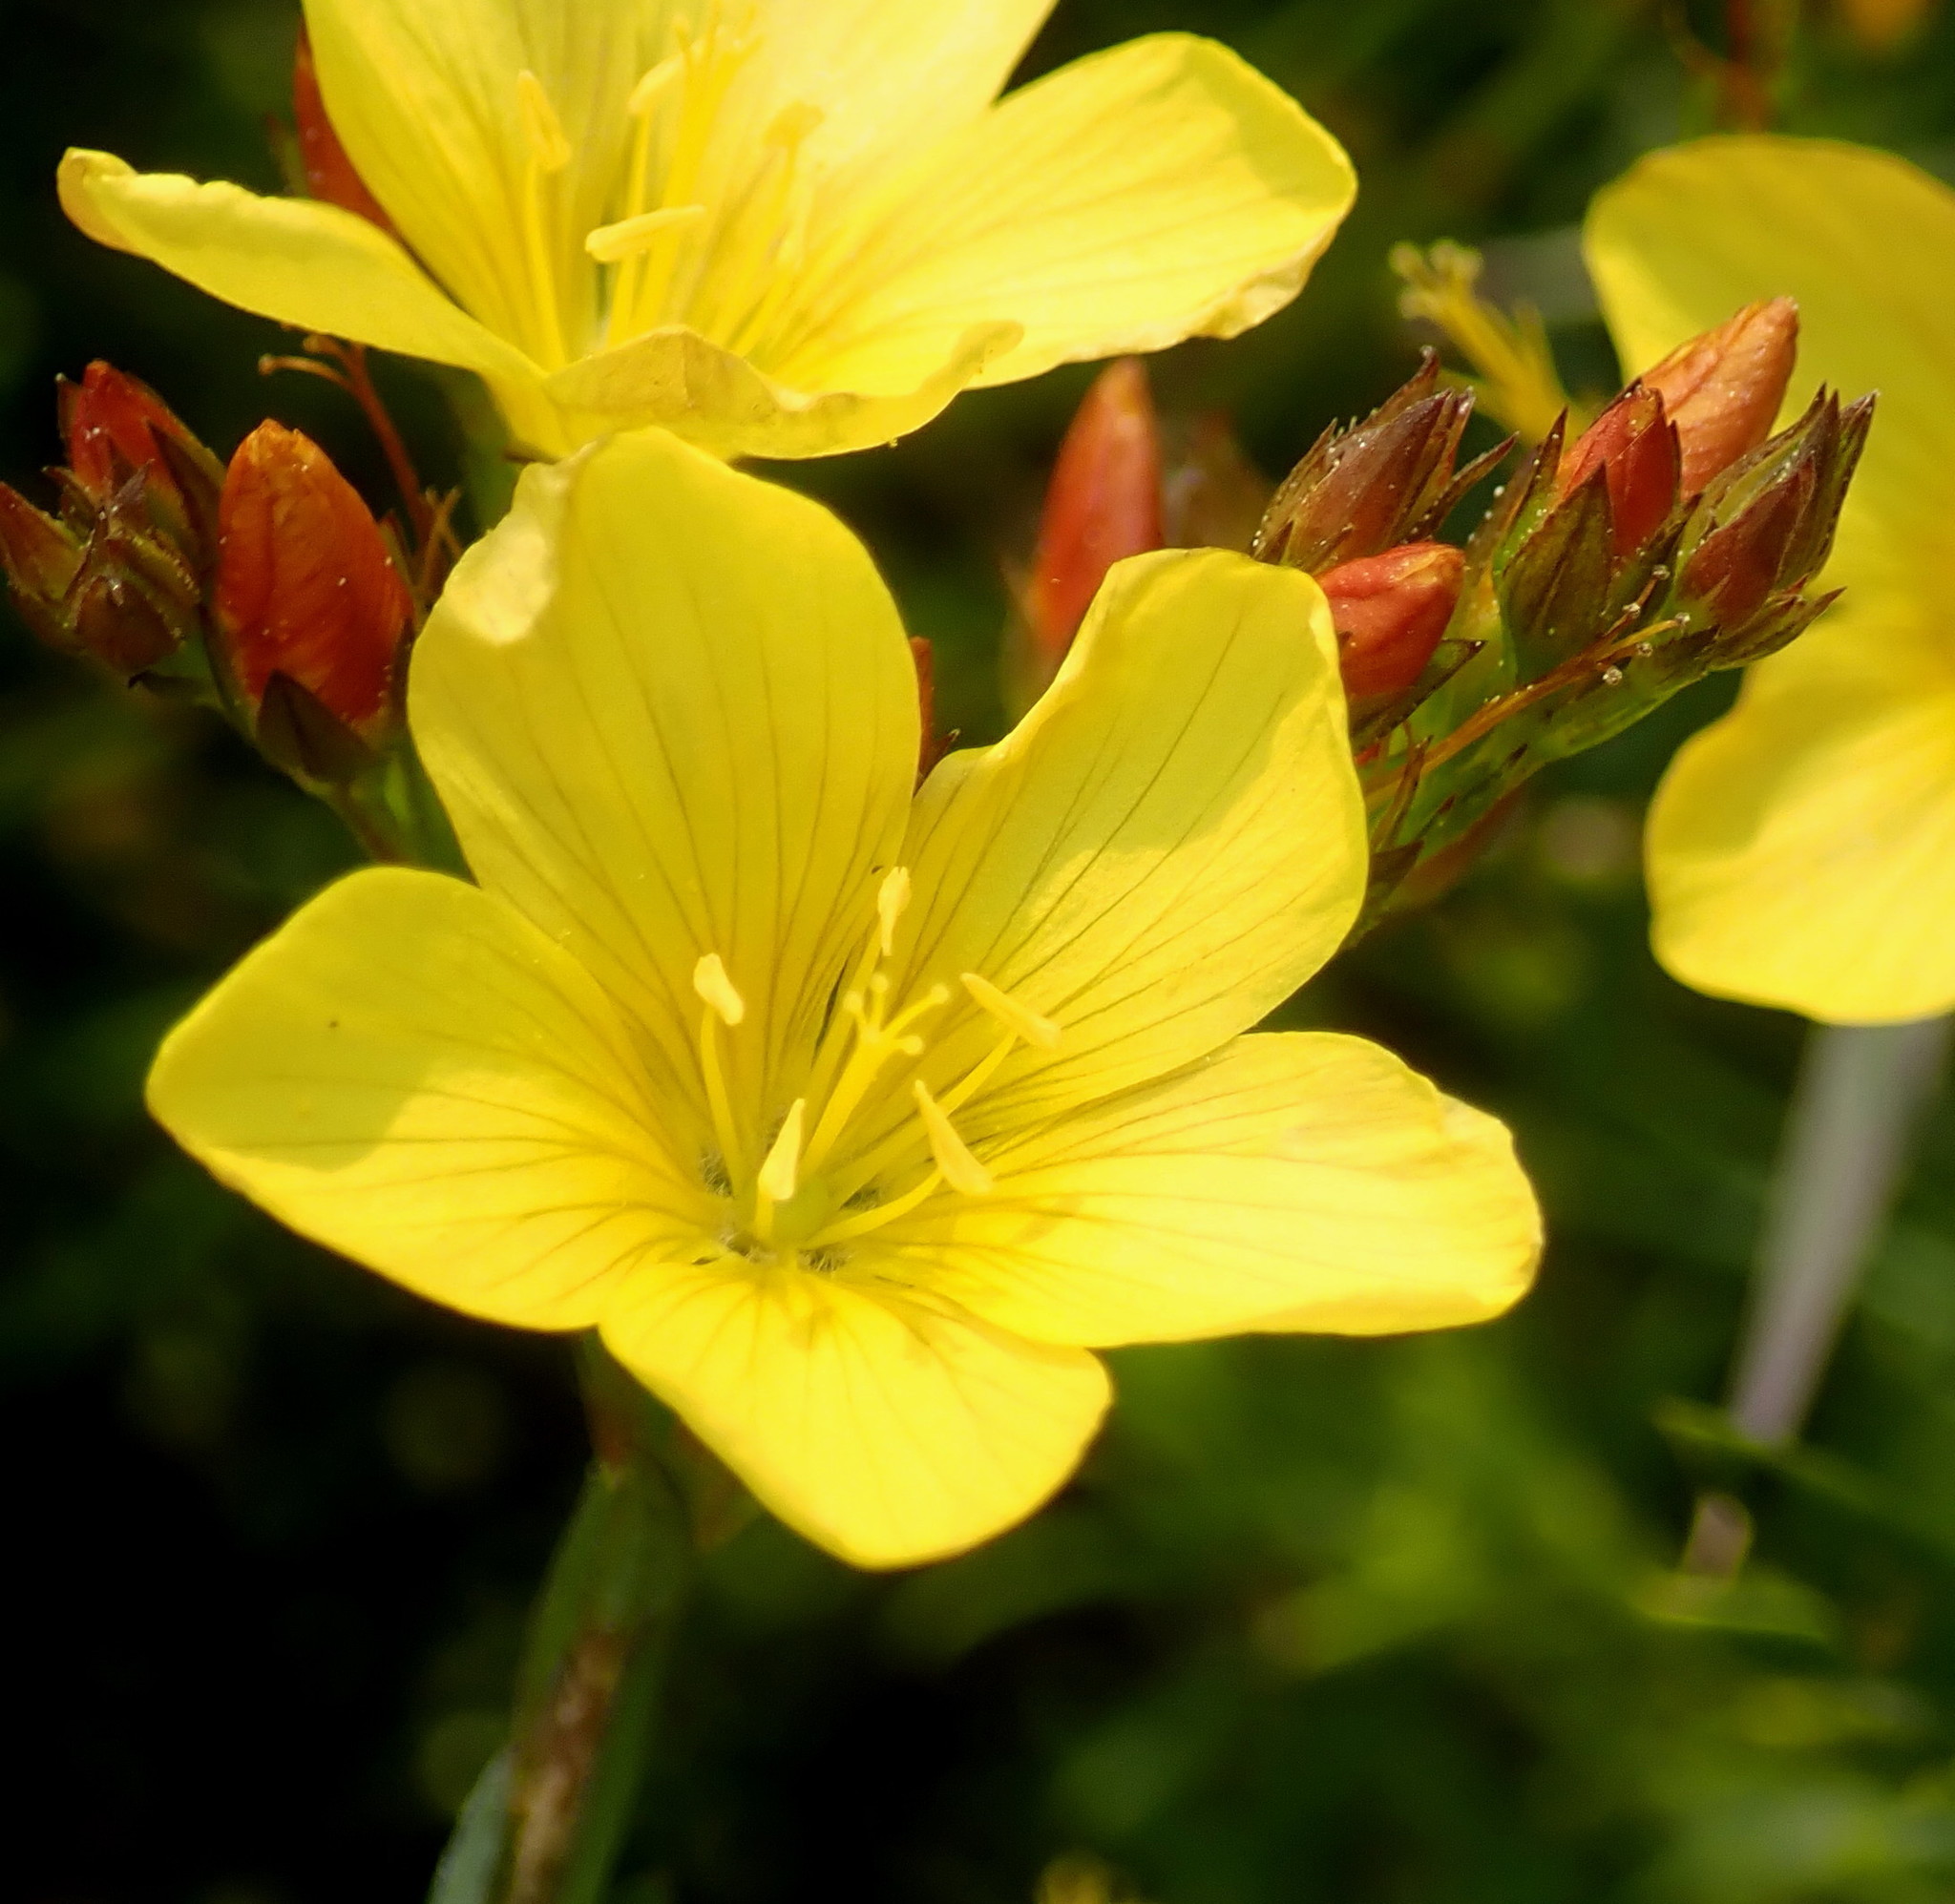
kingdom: Plantae
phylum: Tracheophyta
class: Magnoliopsida
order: Malpighiales
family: Linaceae
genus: Linum
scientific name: Linum africanum
